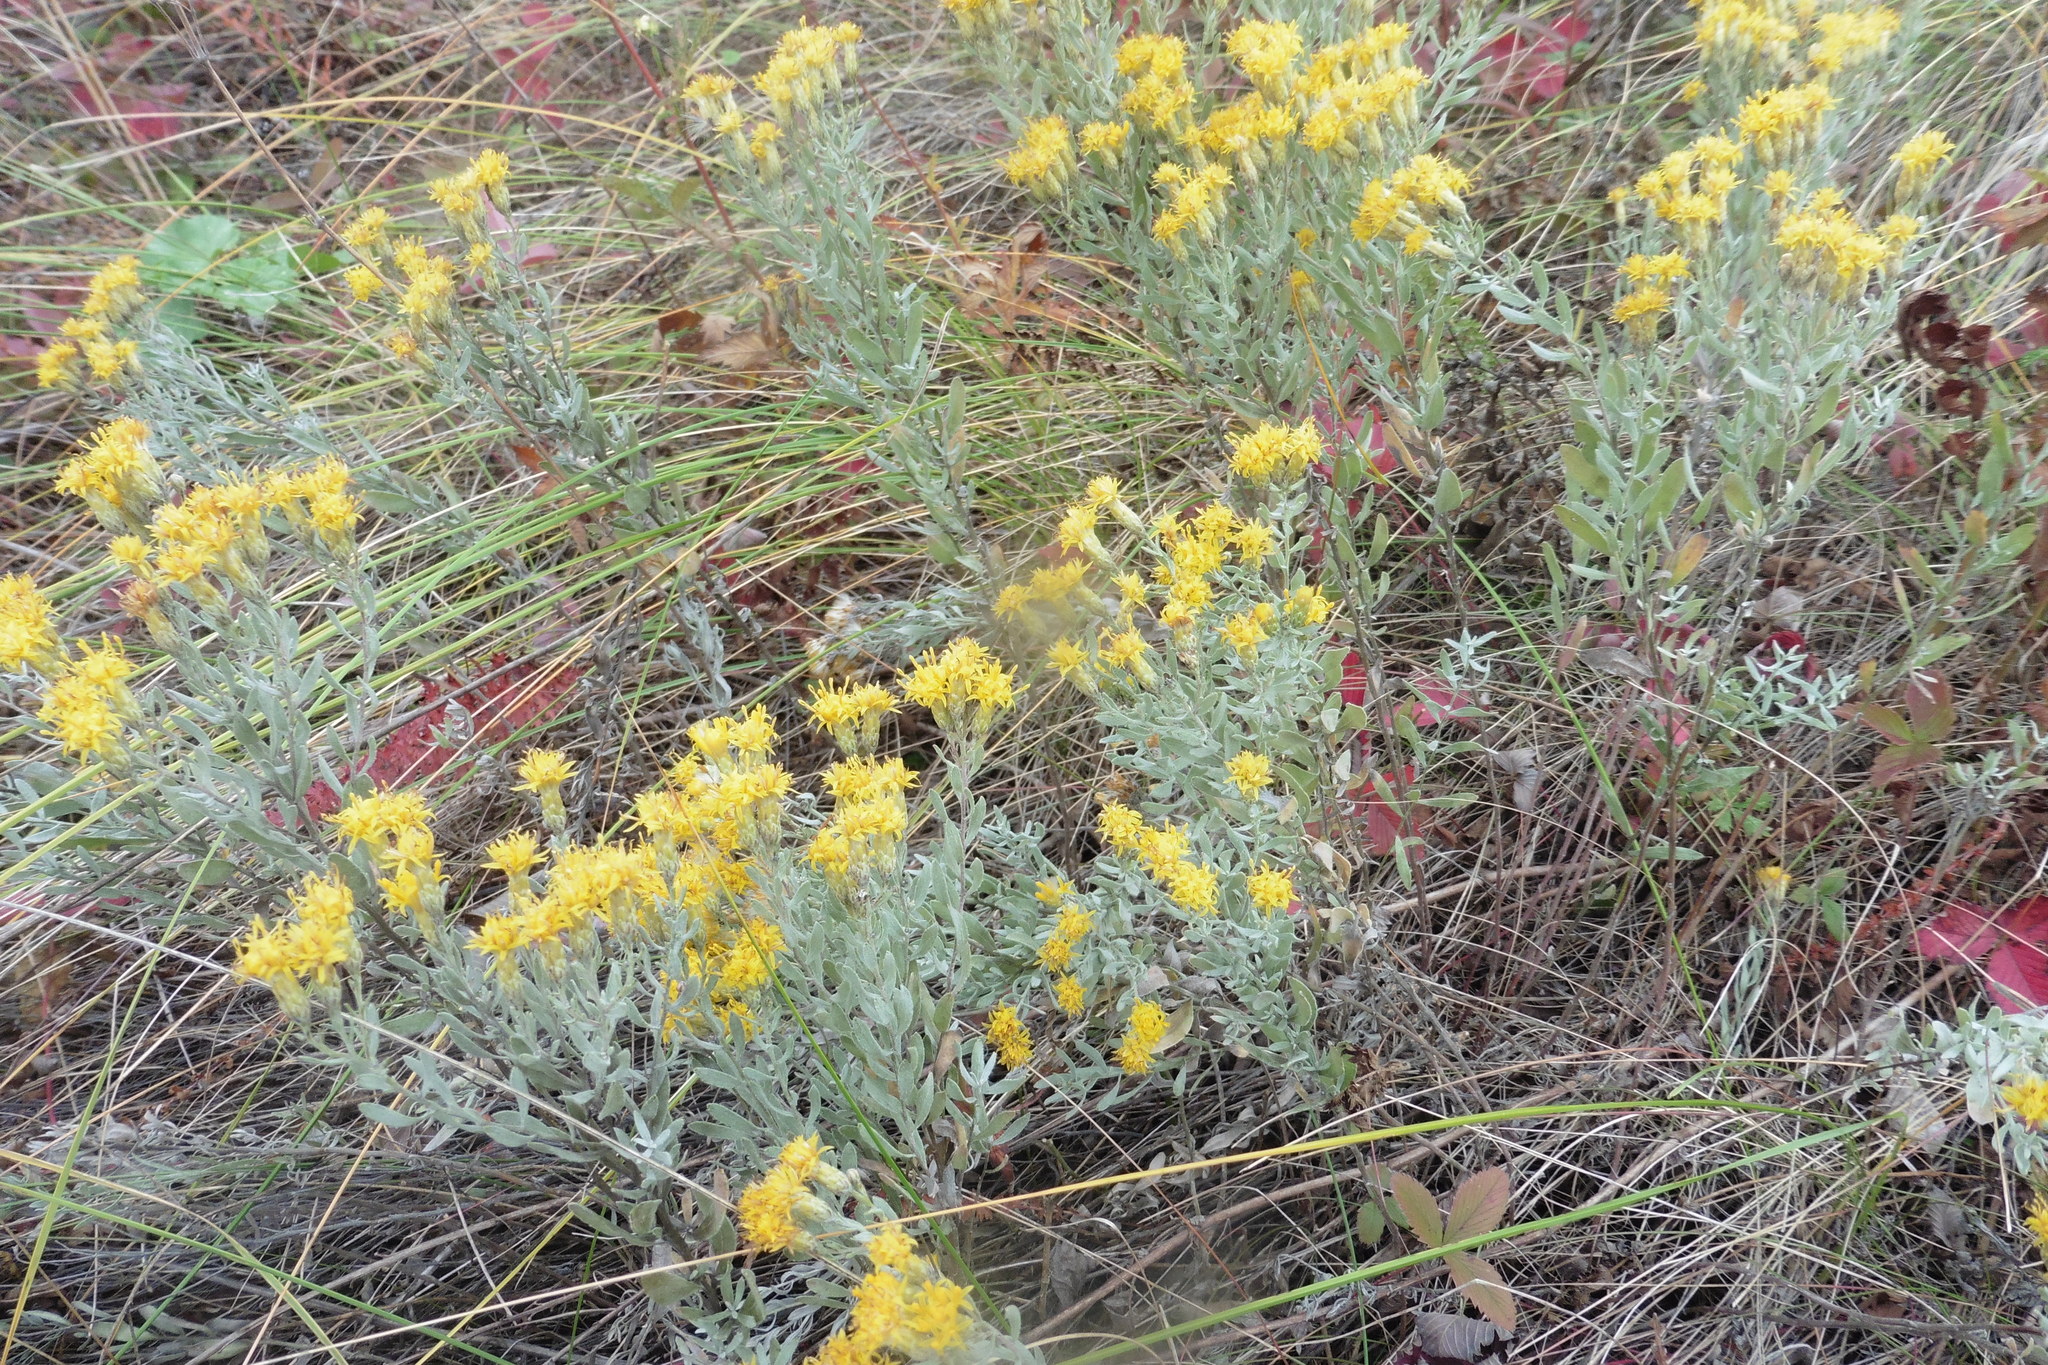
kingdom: Plantae
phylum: Tracheophyta
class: Magnoliopsida
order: Asterales
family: Asteraceae
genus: Galatella
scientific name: Galatella villosa
